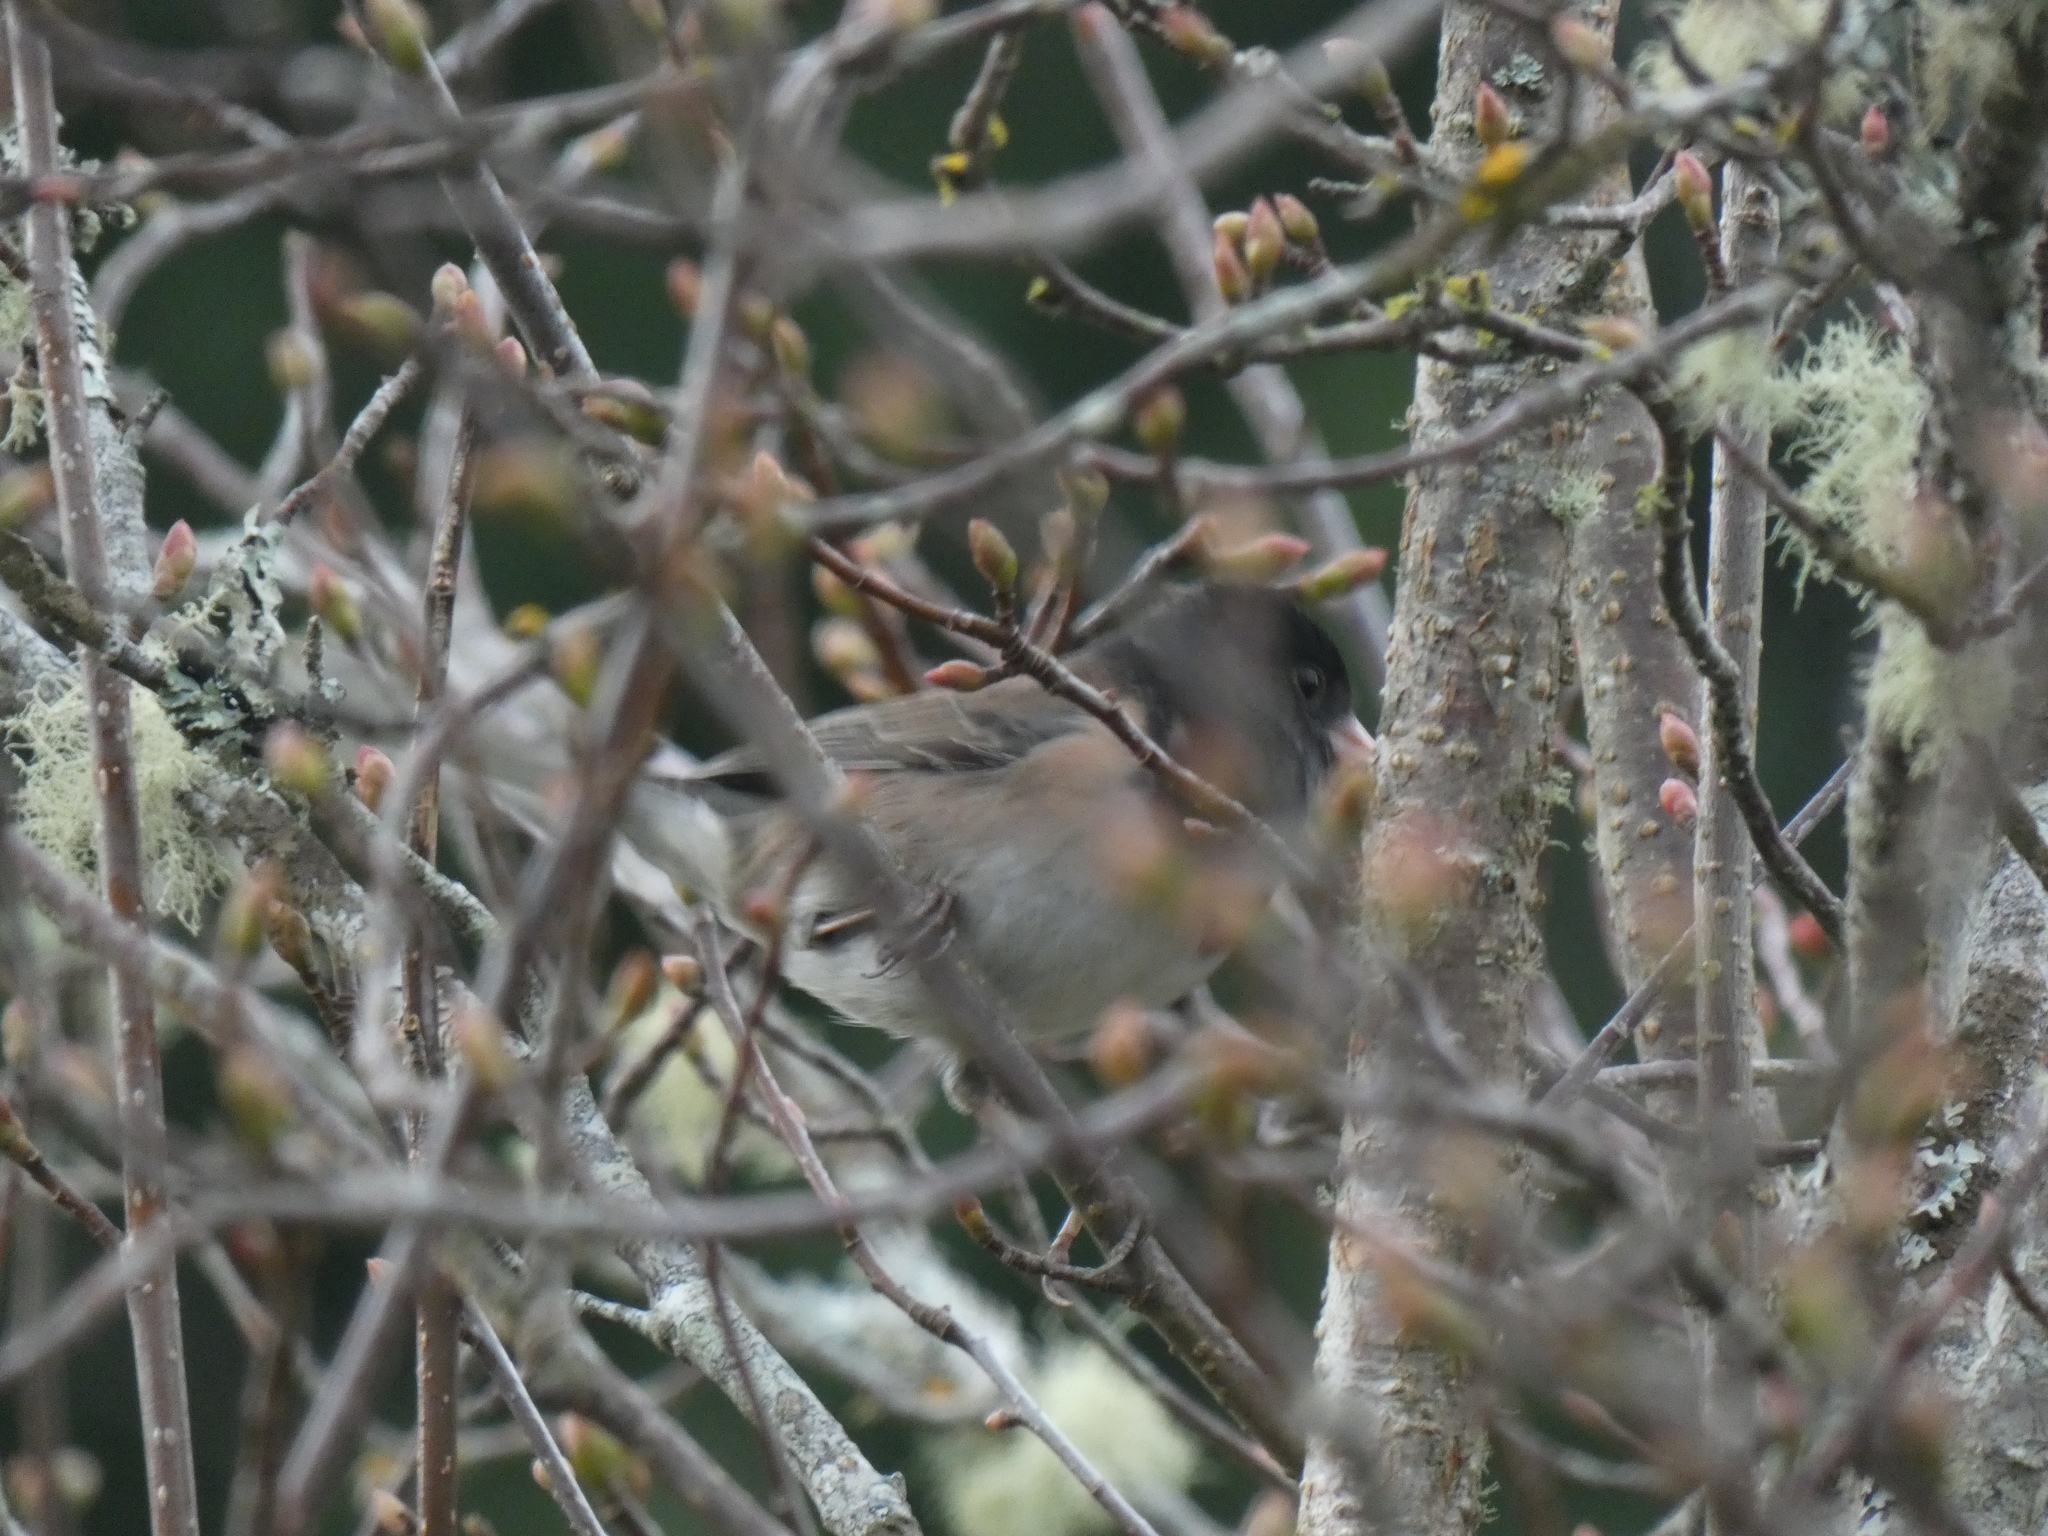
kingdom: Animalia
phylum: Chordata
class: Aves
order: Passeriformes
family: Passerellidae
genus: Junco
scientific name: Junco hyemalis
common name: Dark-eyed junco
